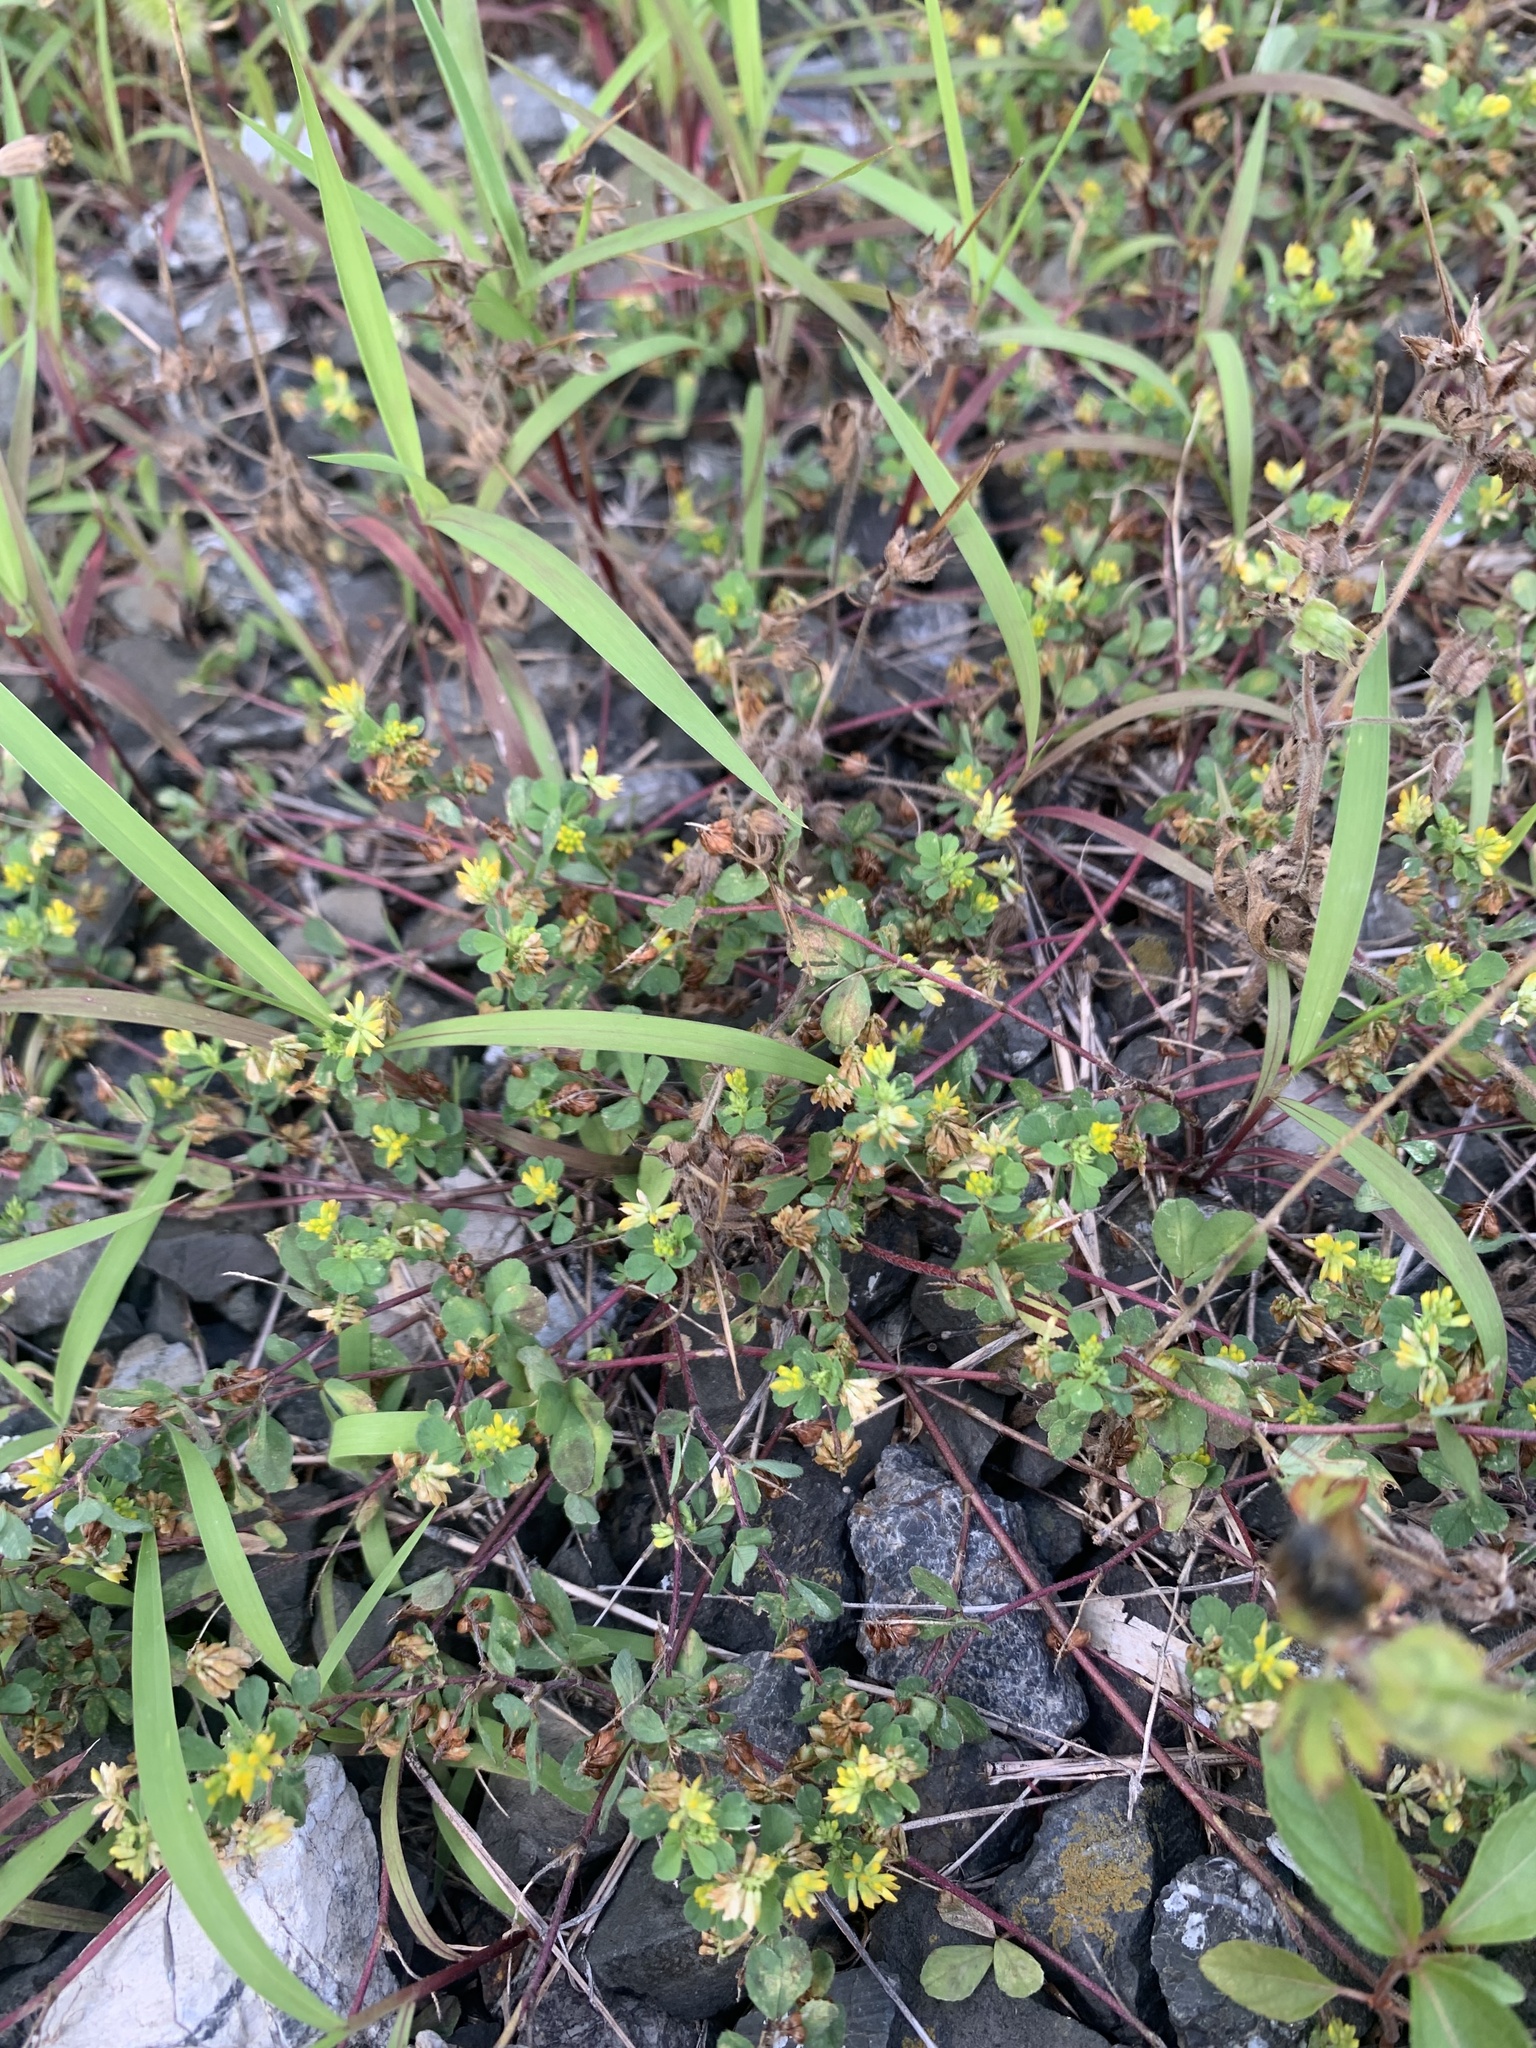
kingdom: Plantae
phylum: Tracheophyta
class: Magnoliopsida
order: Fabales
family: Fabaceae
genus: Trifolium
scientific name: Trifolium dubium
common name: Suckling clover
